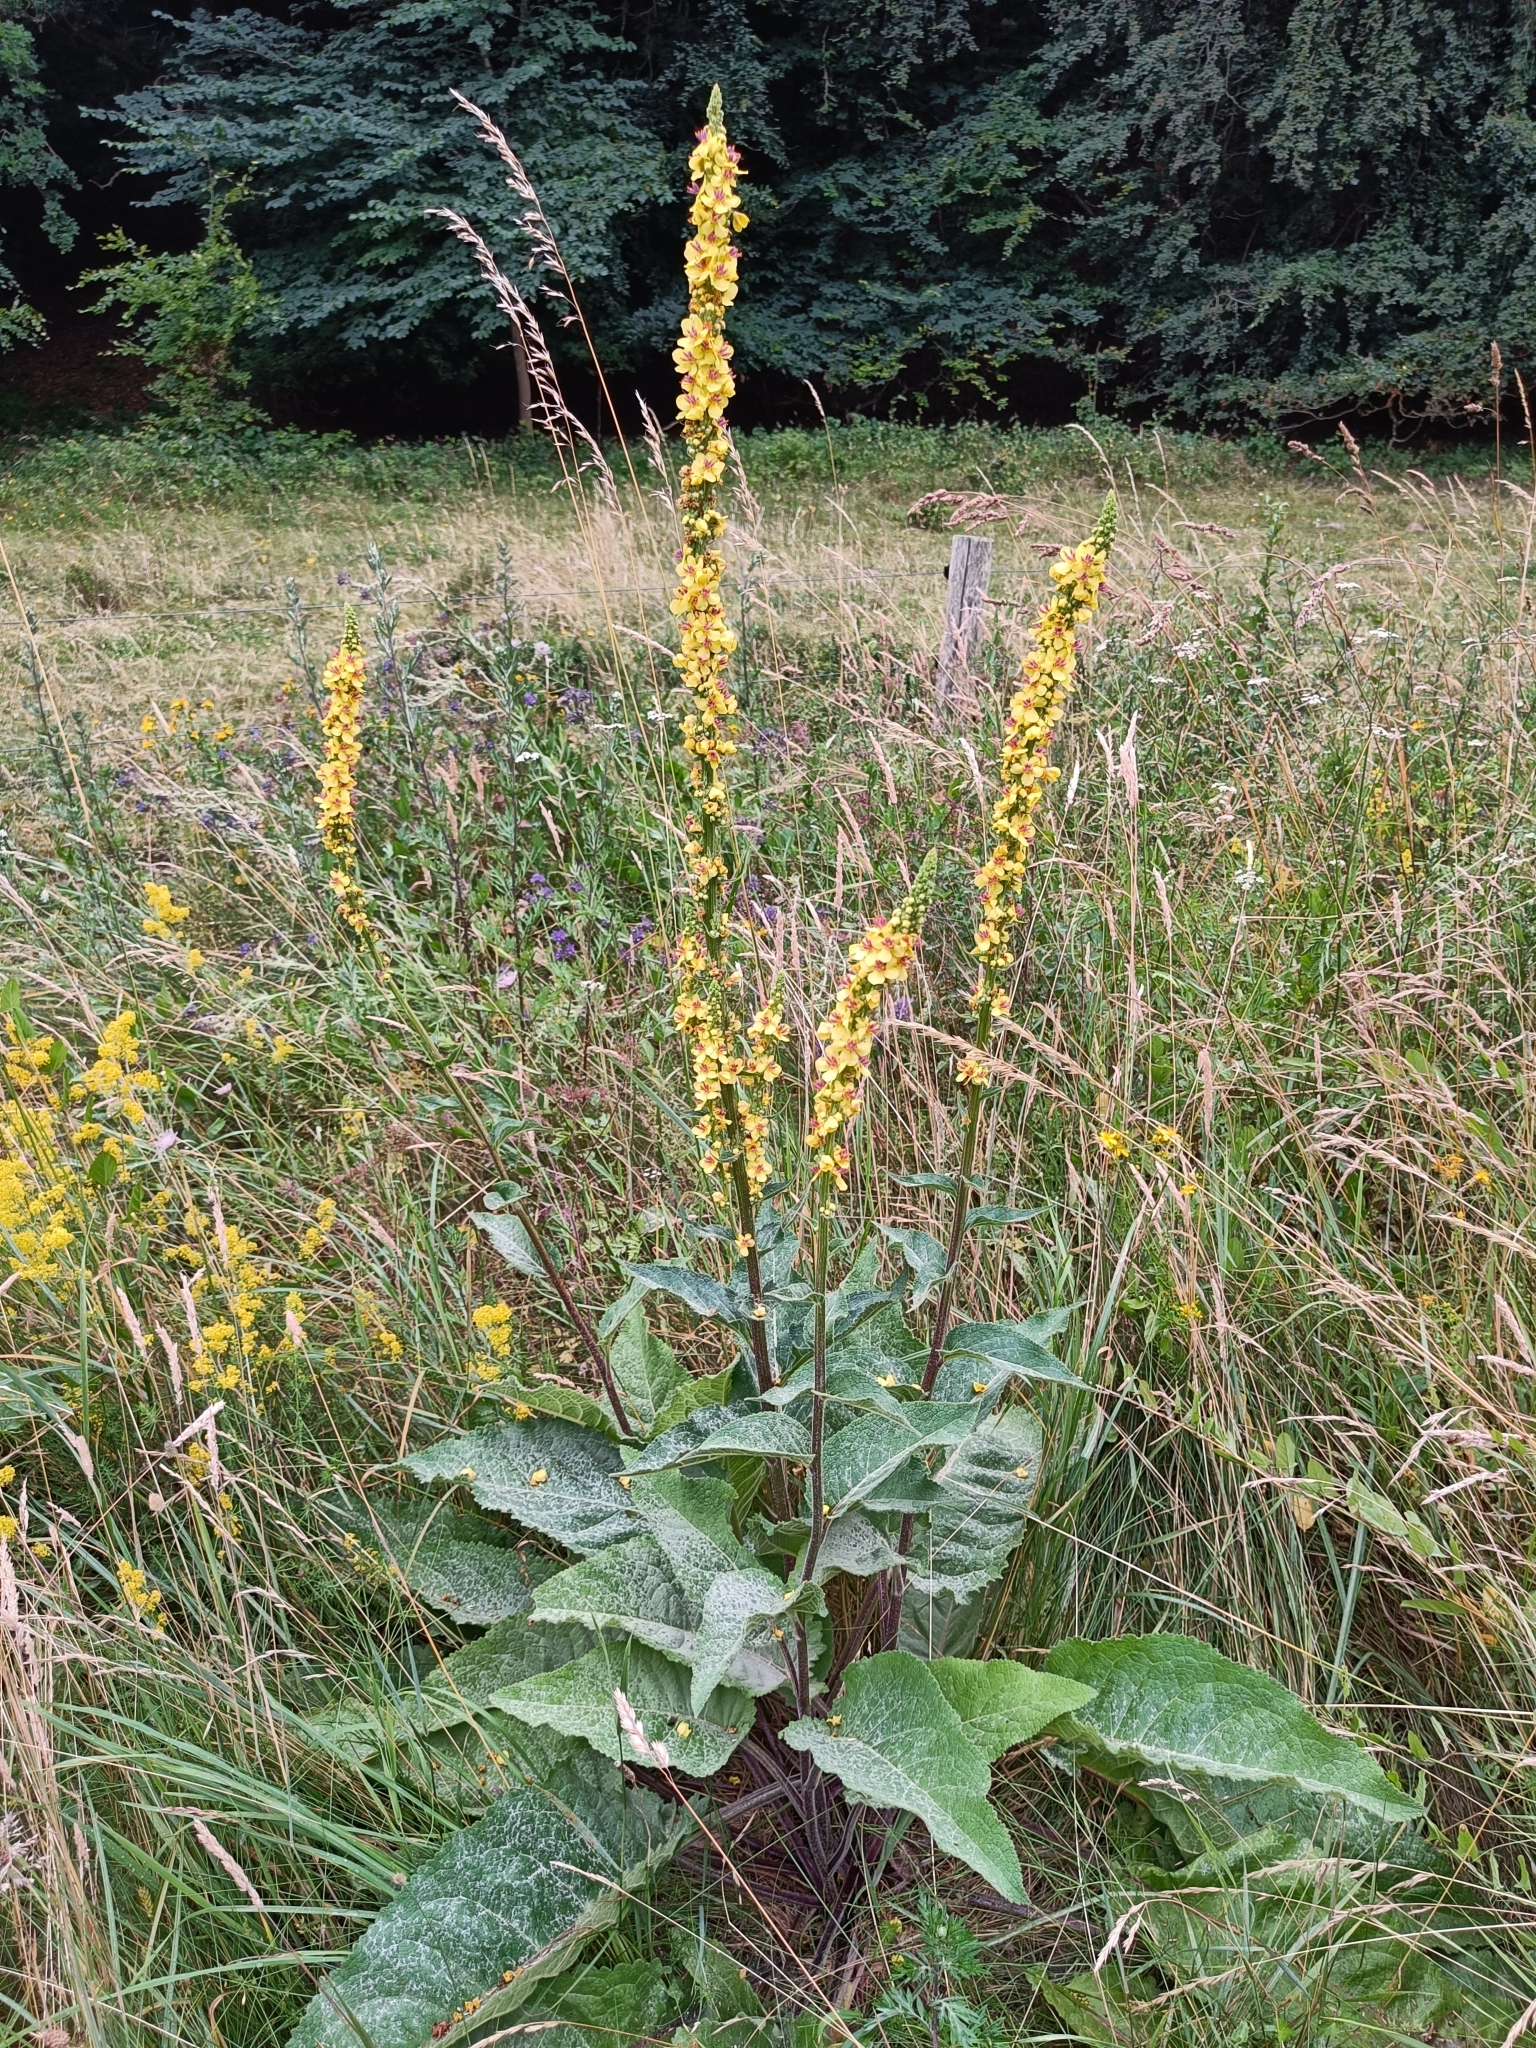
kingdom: Plantae
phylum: Tracheophyta
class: Magnoliopsida
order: Lamiales
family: Scrophulariaceae
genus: Verbascum
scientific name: Verbascum nigrum
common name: Dark mullein
